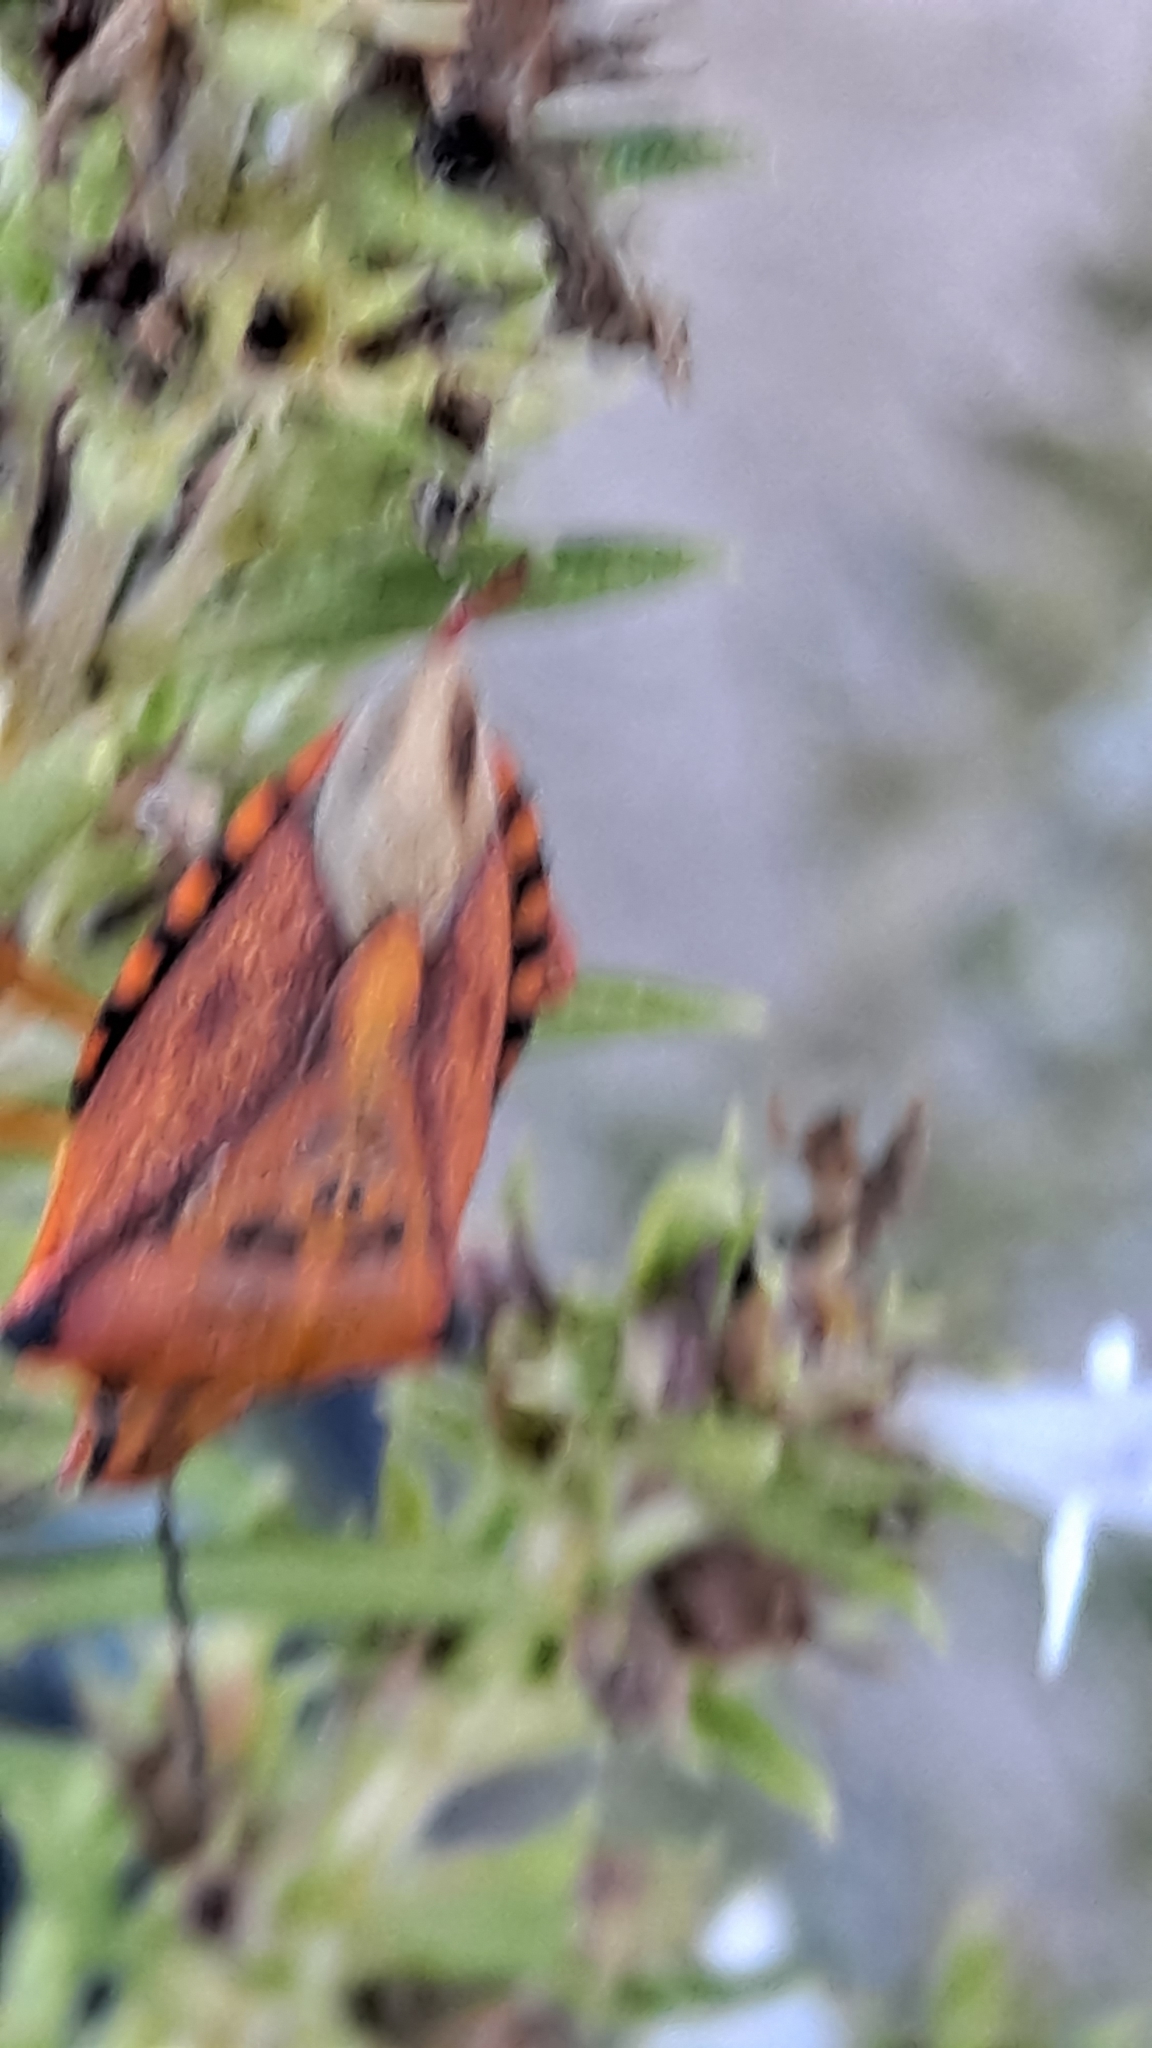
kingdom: Animalia
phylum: Arthropoda
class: Insecta
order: Hemiptera
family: Pentatomidae
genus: Carpocoris
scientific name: Carpocoris mediterraneus
